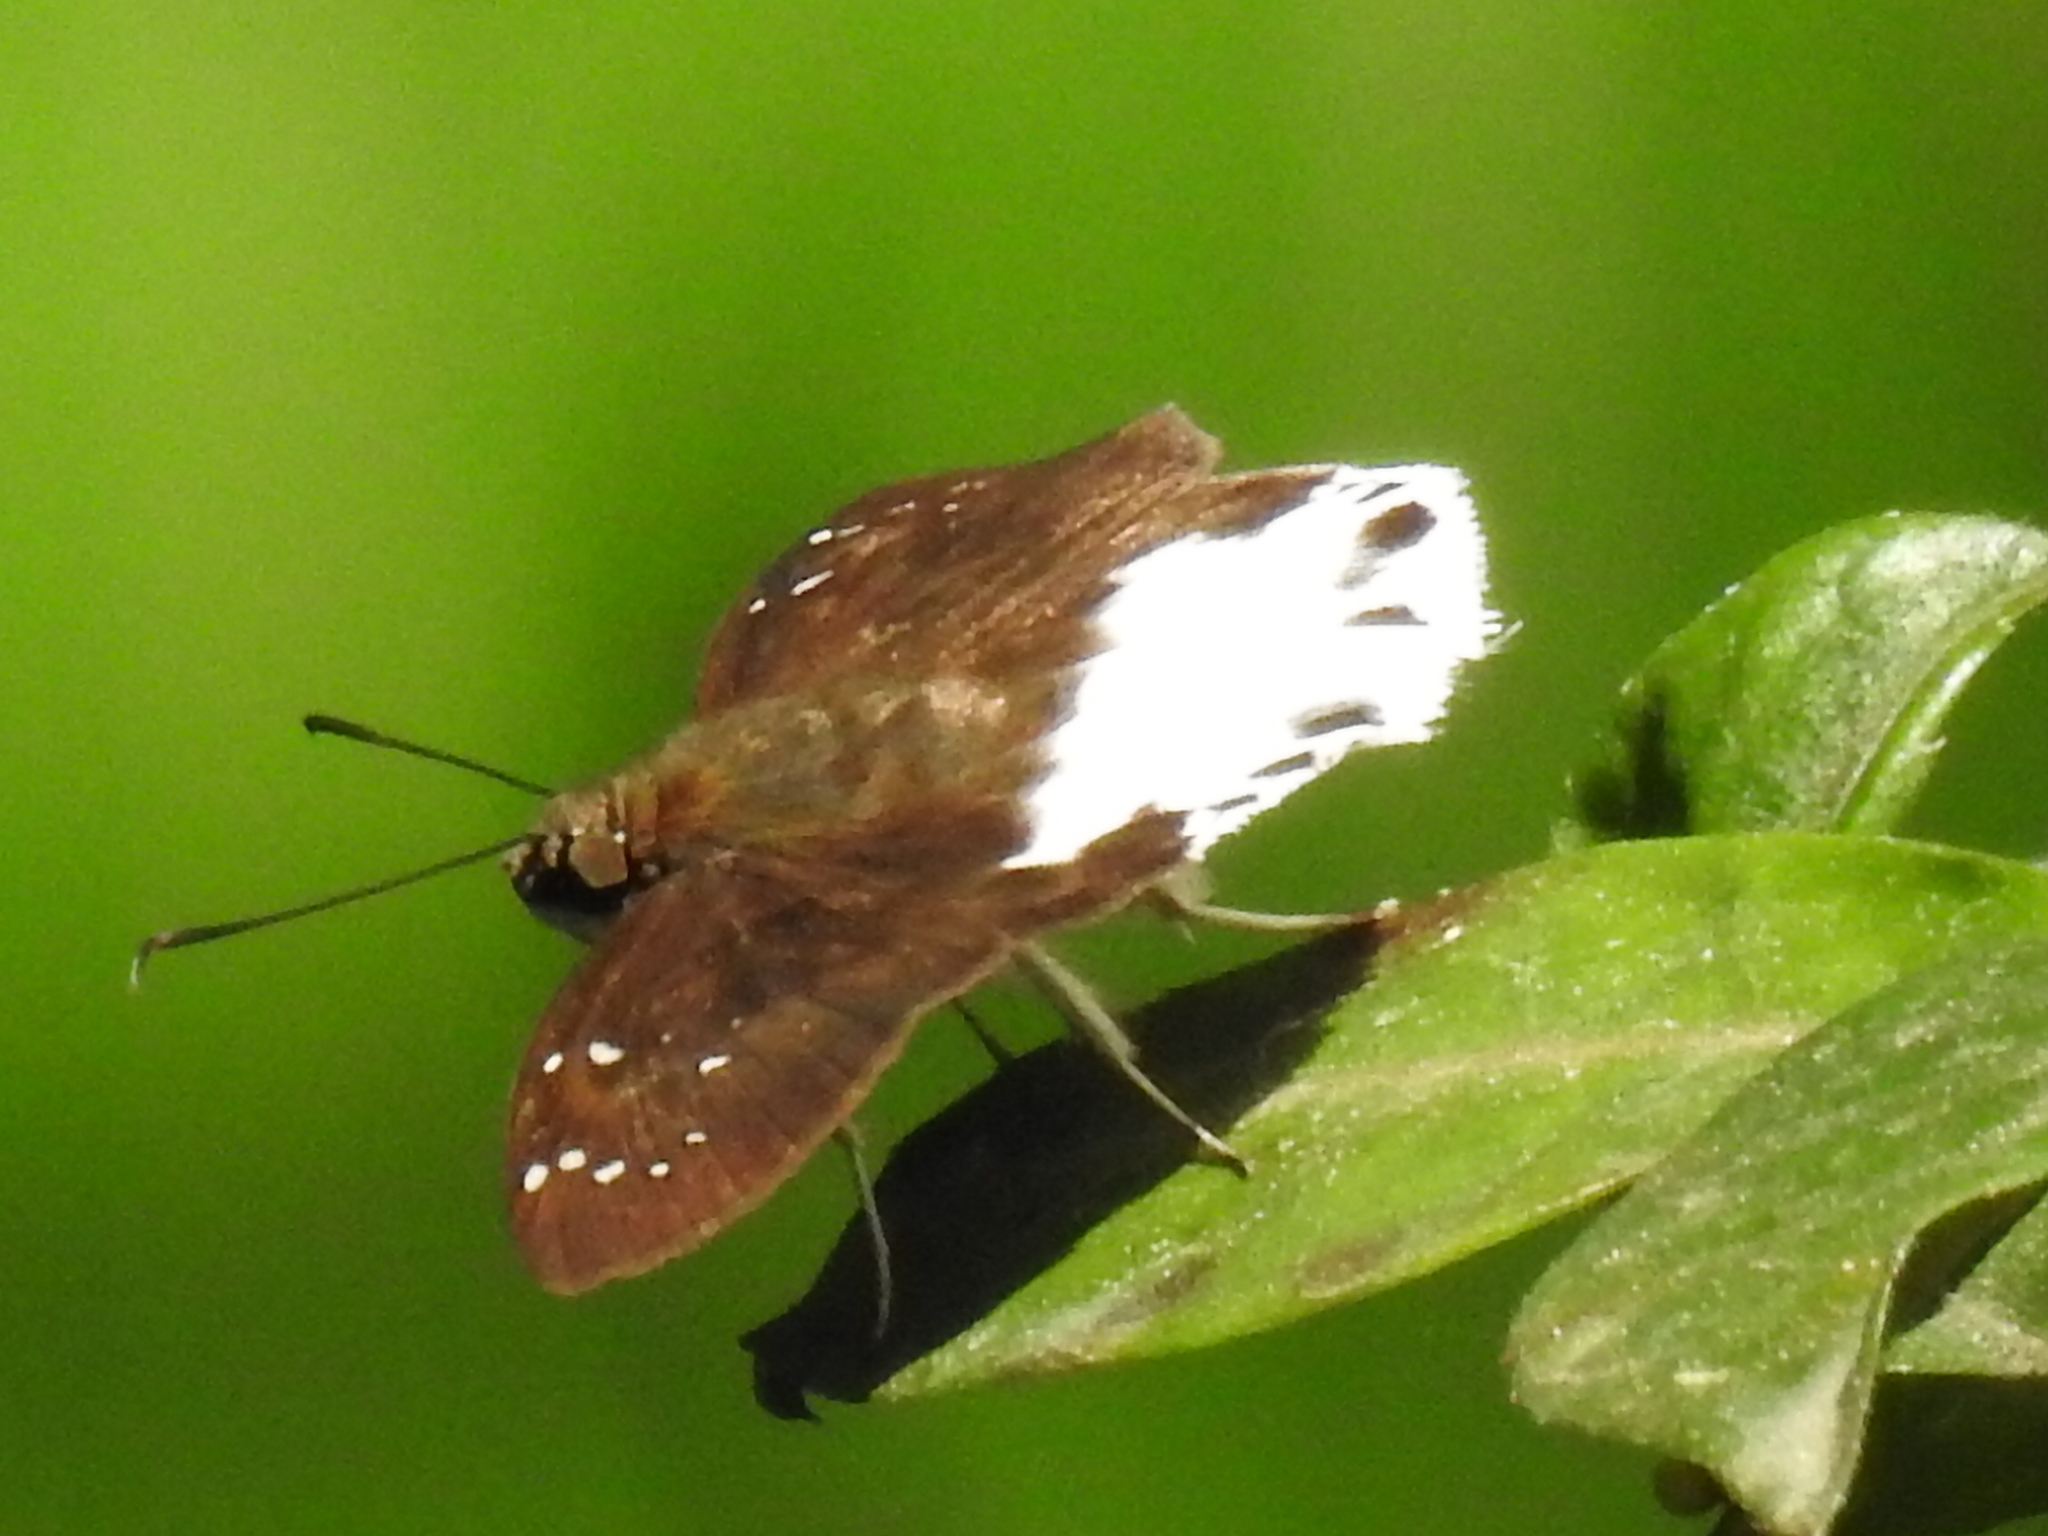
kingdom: Animalia
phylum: Arthropoda
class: Insecta
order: Lepidoptera
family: Hesperiidae
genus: Tagiades
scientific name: Tagiades litigiosa
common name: Water snow flat
